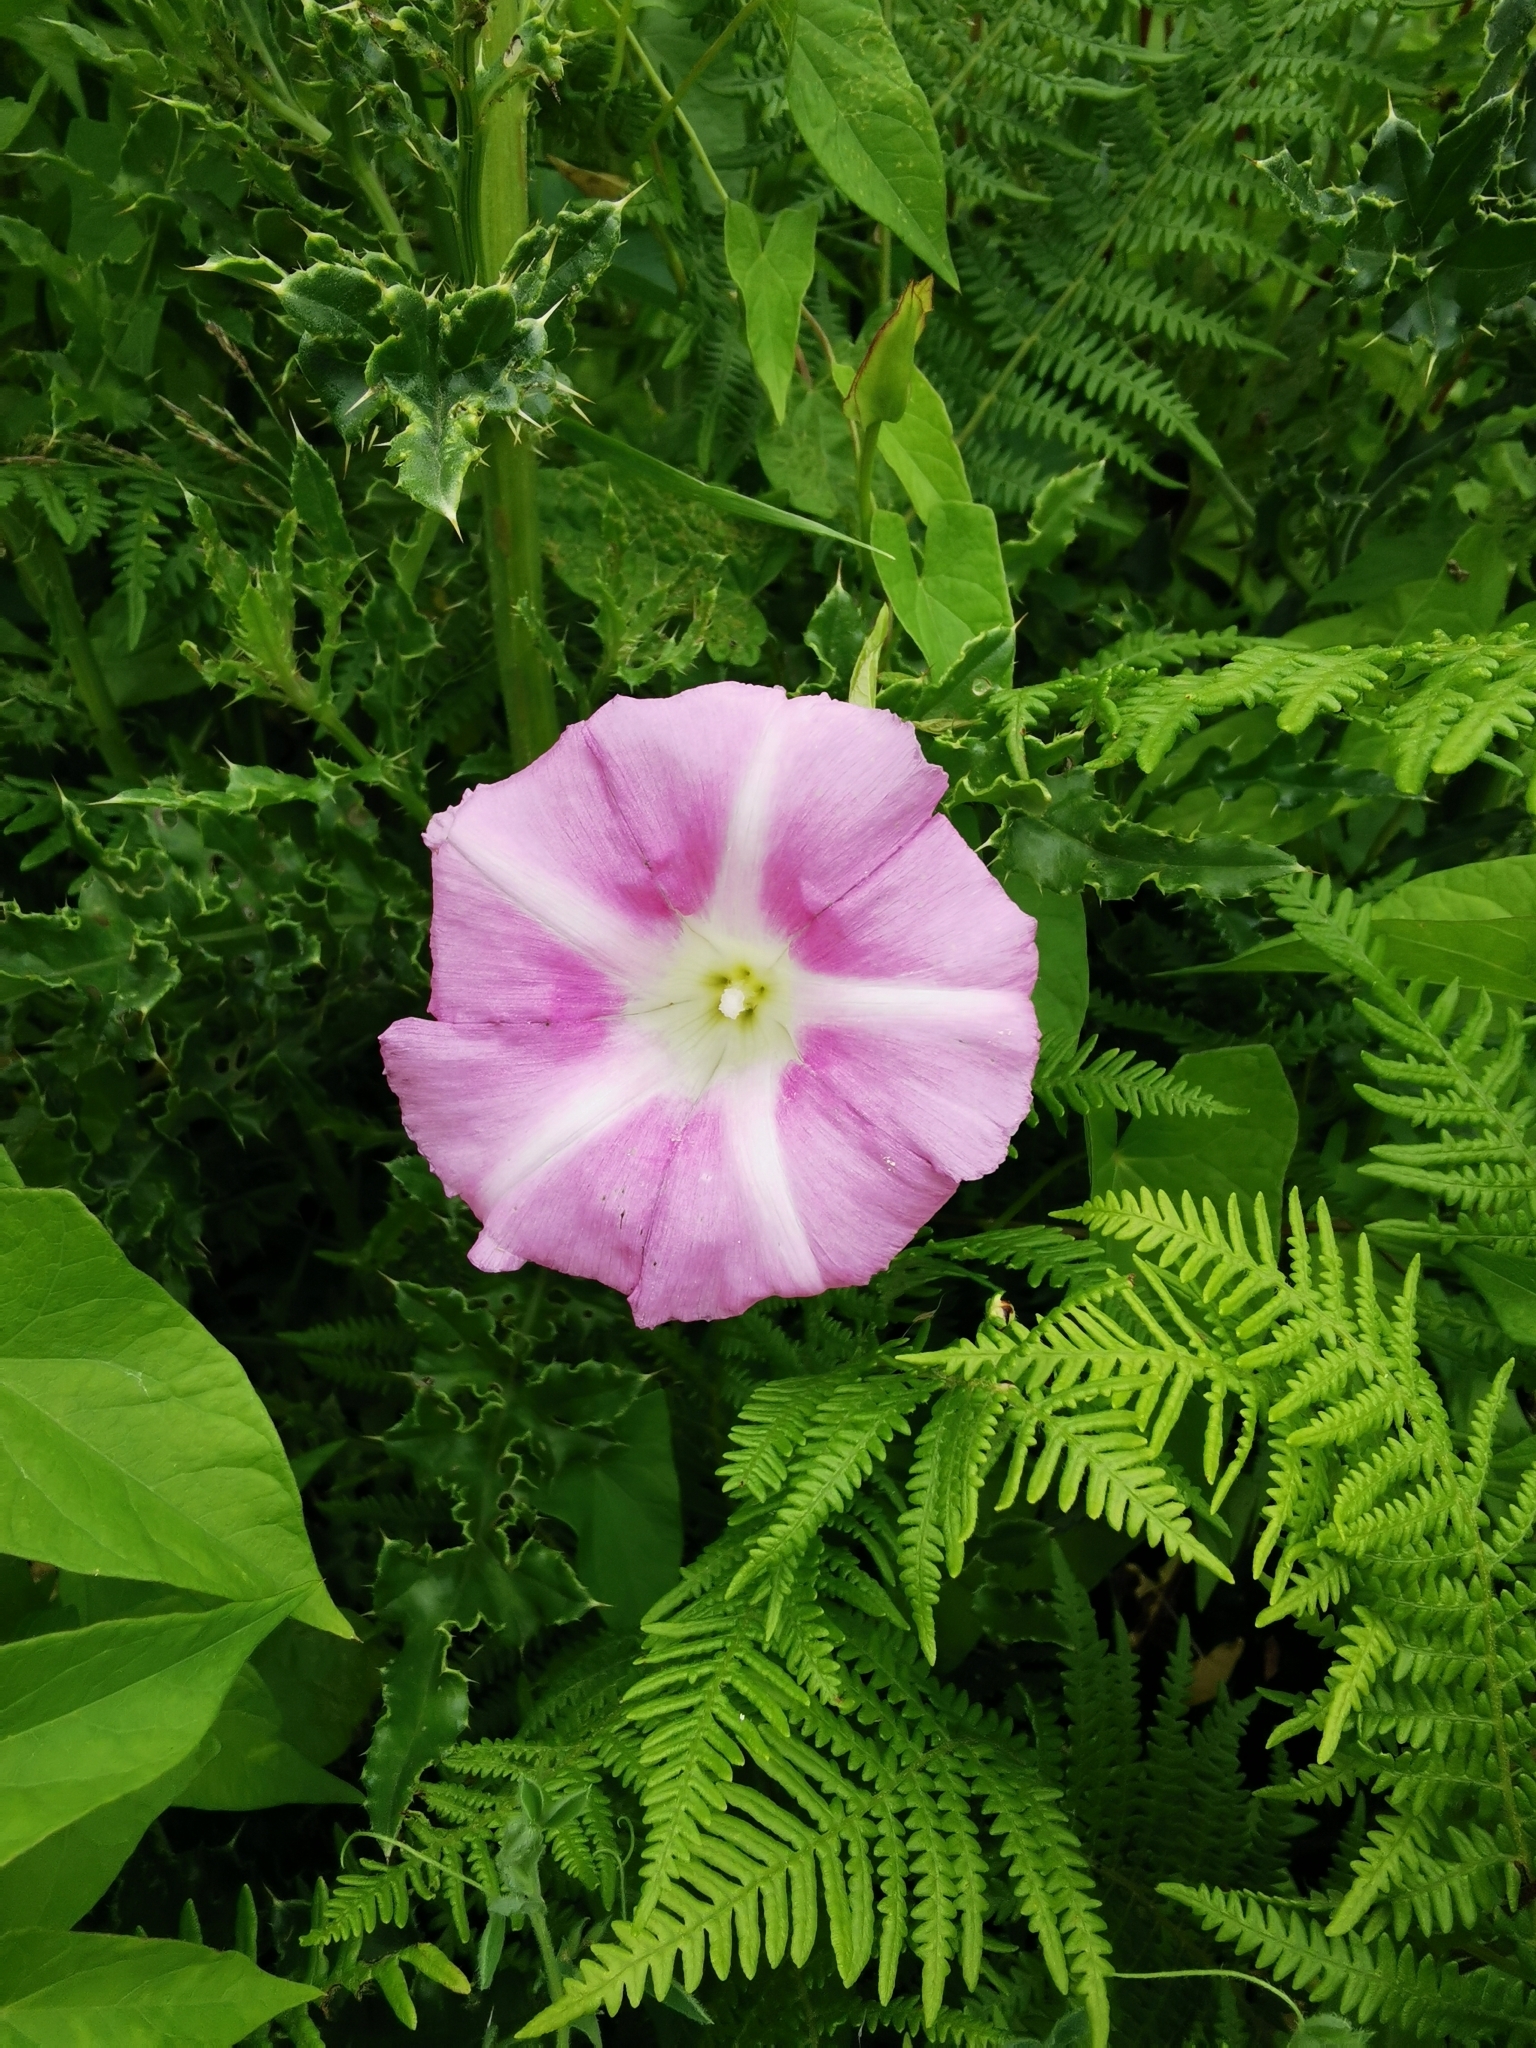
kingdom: Plantae
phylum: Tracheophyta
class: Magnoliopsida
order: Solanales
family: Convolvulaceae
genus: Calystegia
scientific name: Calystegia sepium
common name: Hedge bindweed
